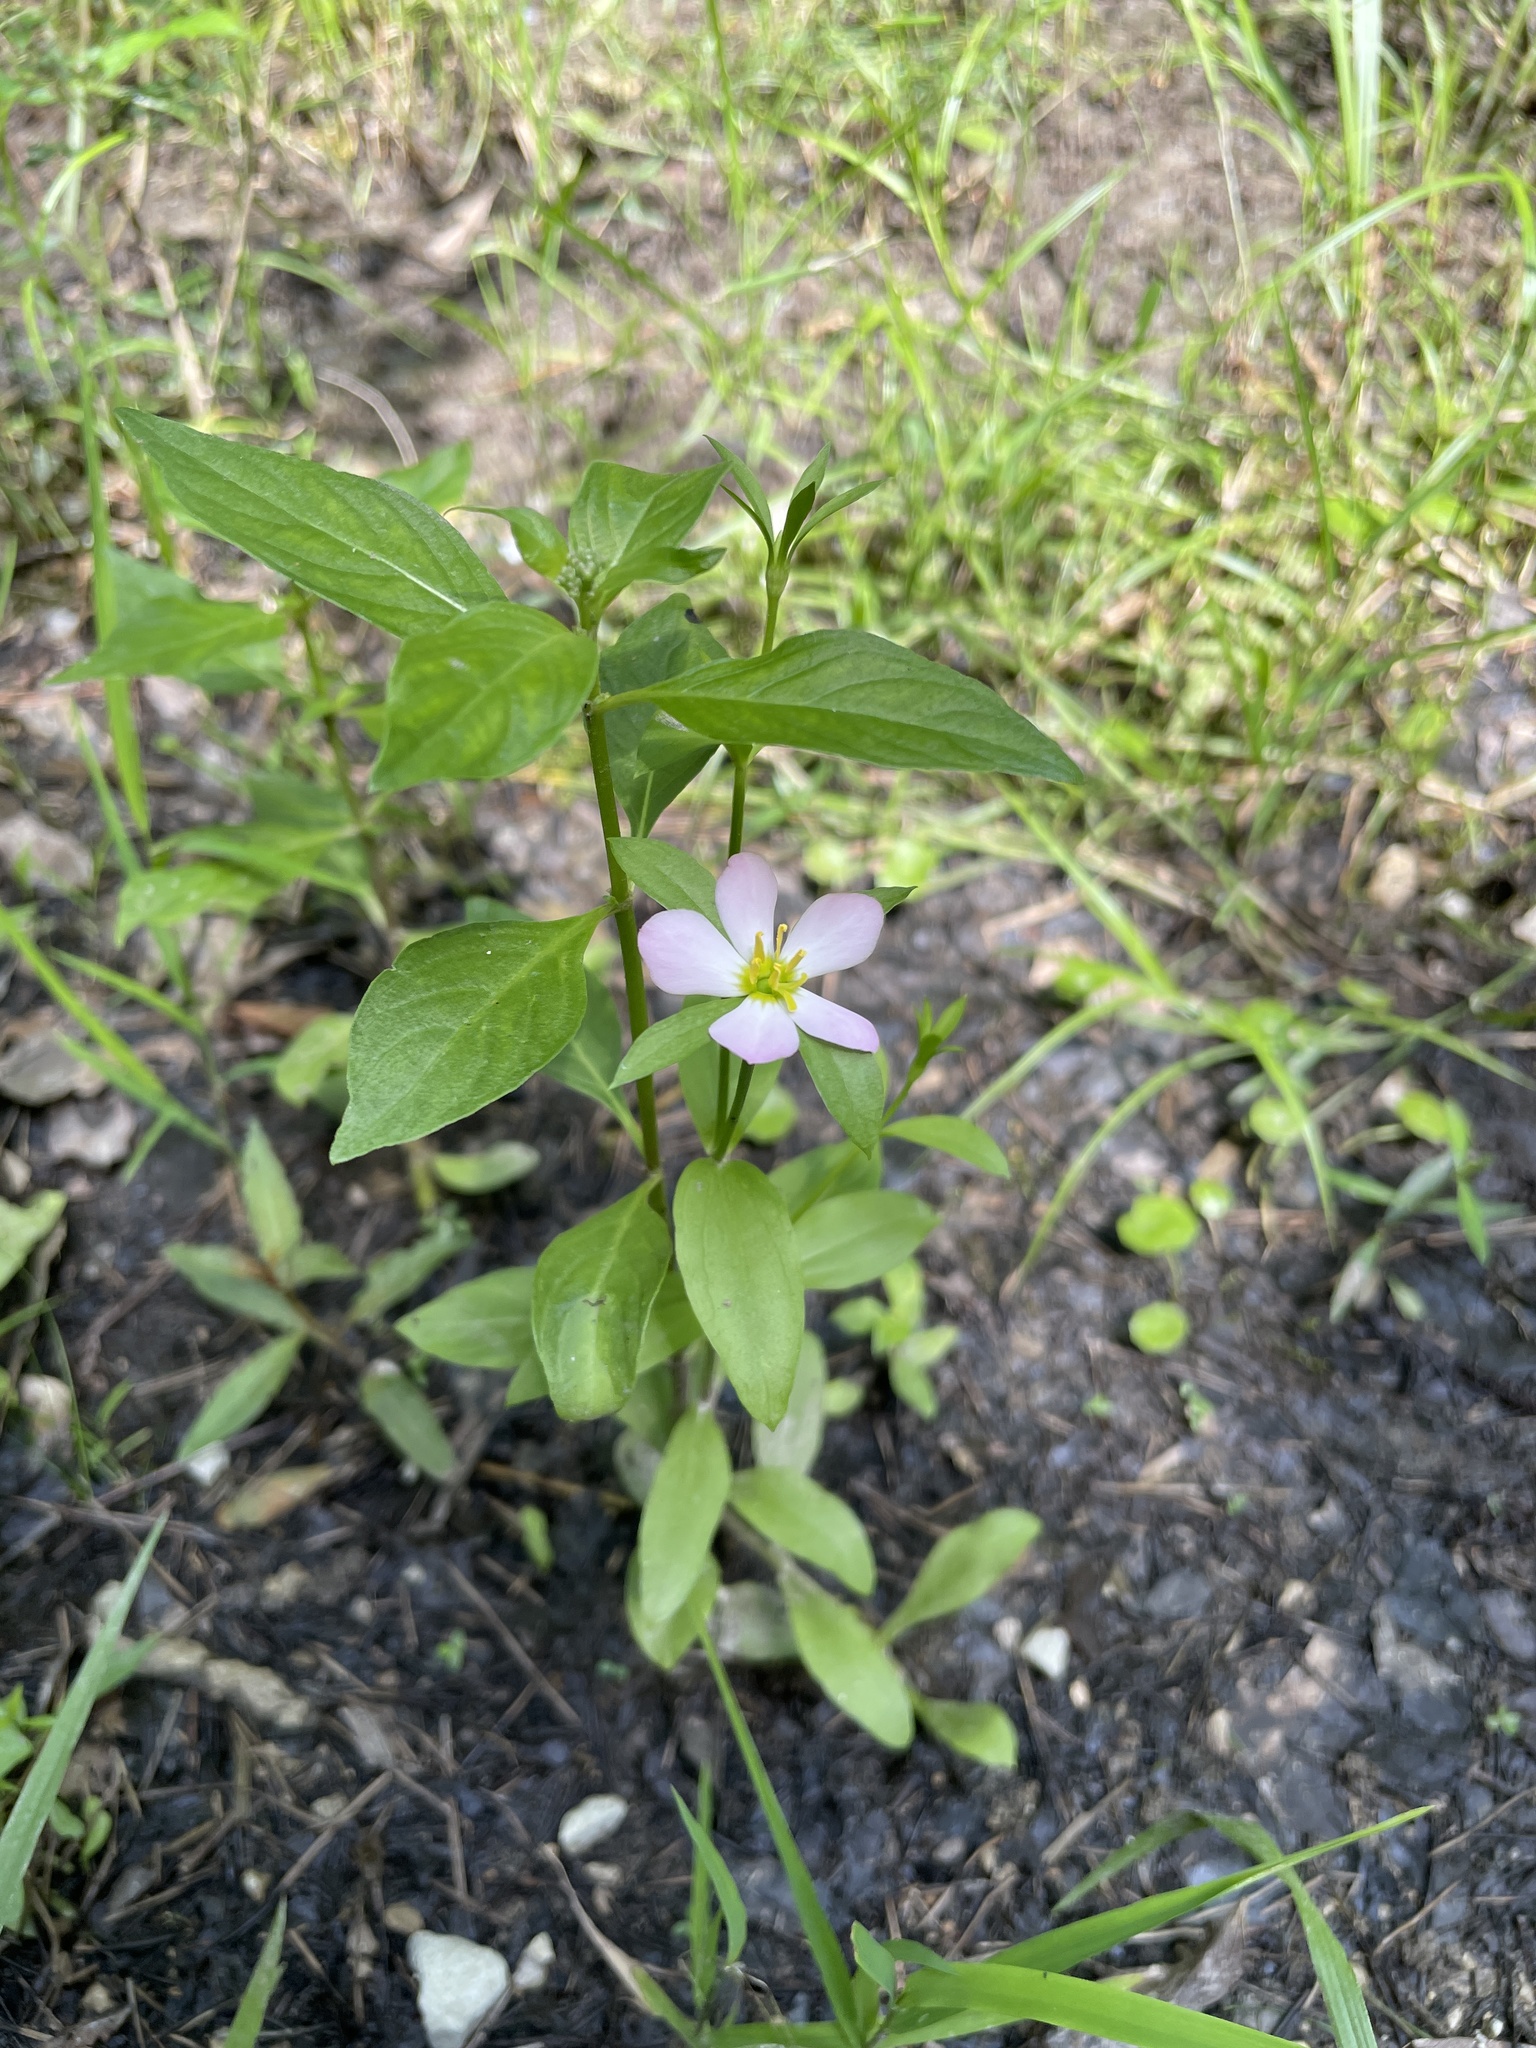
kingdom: Plantae
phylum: Tracheophyta
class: Magnoliopsida
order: Gentianales
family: Gentianaceae
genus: Sabatia
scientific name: Sabatia calycina
